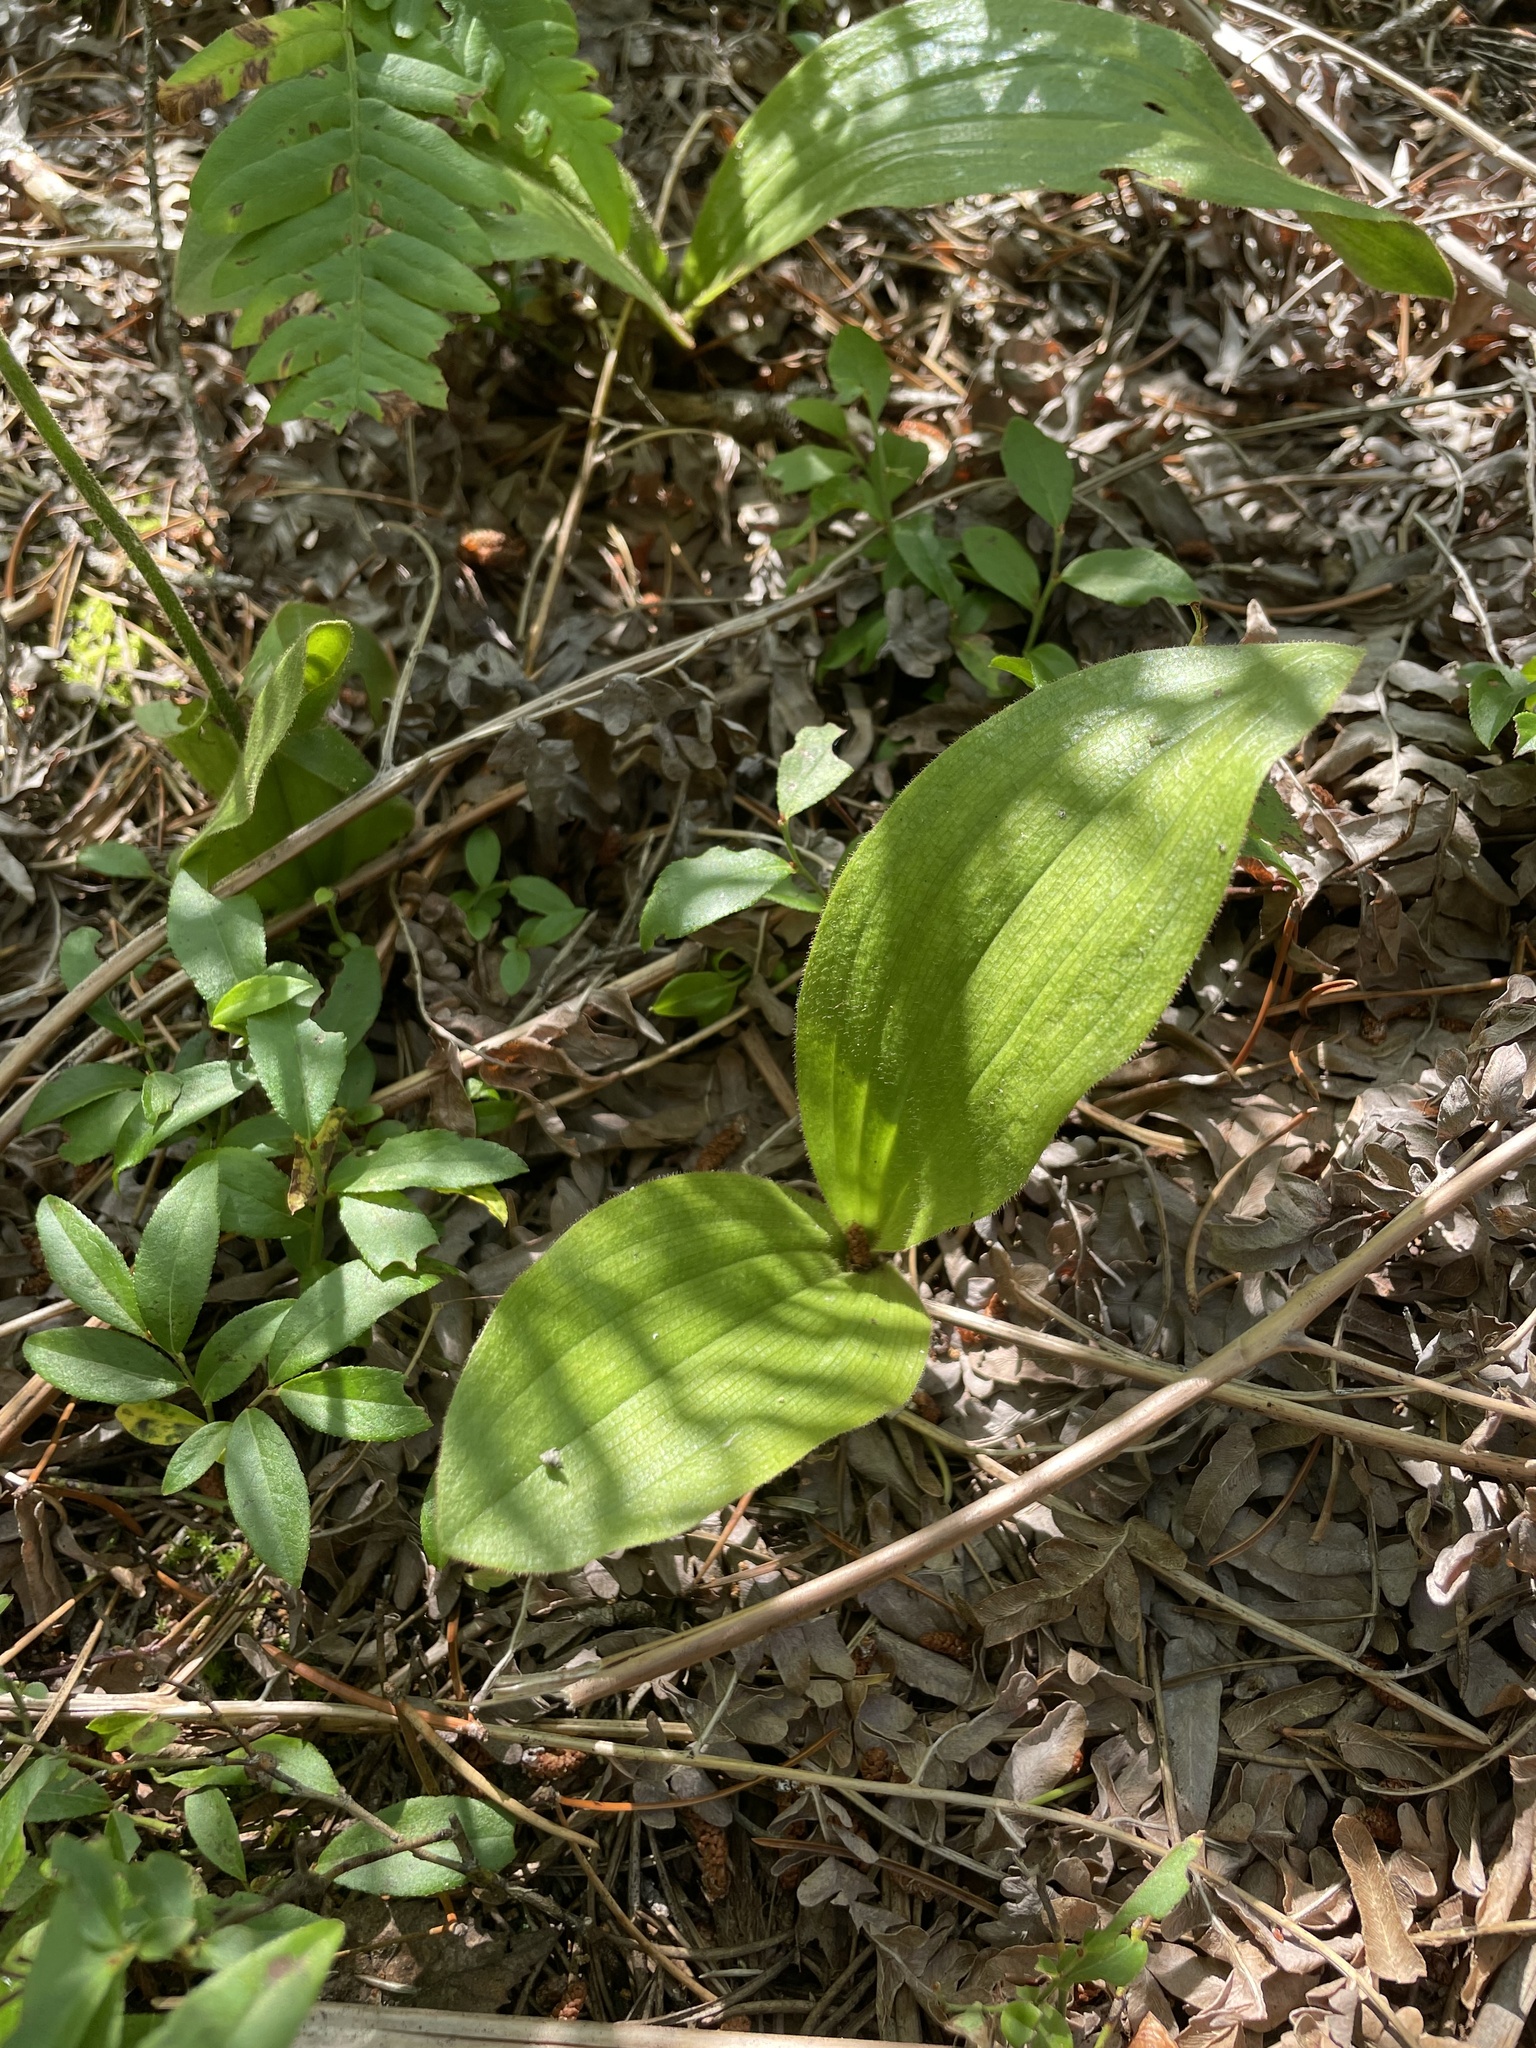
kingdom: Plantae
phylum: Tracheophyta
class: Liliopsida
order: Asparagales
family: Orchidaceae
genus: Cypripedium
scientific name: Cypripedium acaule
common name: Pink lady's-slipper
